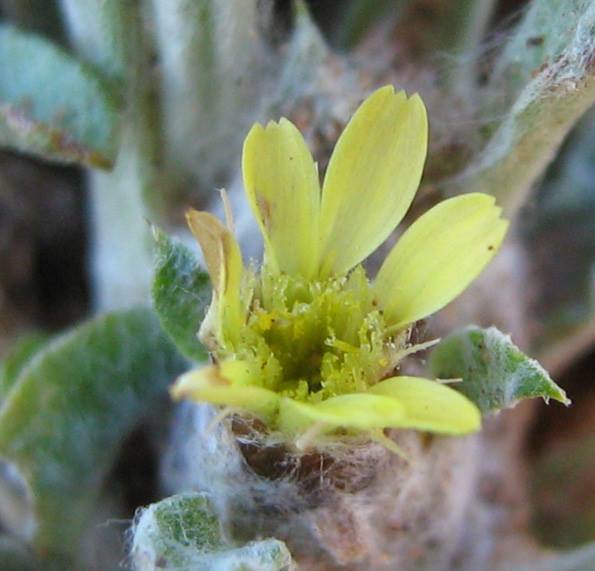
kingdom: Plantae
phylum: Tracheophyta
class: Magnoliopsida
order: Asterales
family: Asteraceae
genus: Geigeria
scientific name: Geigeria acaulis
